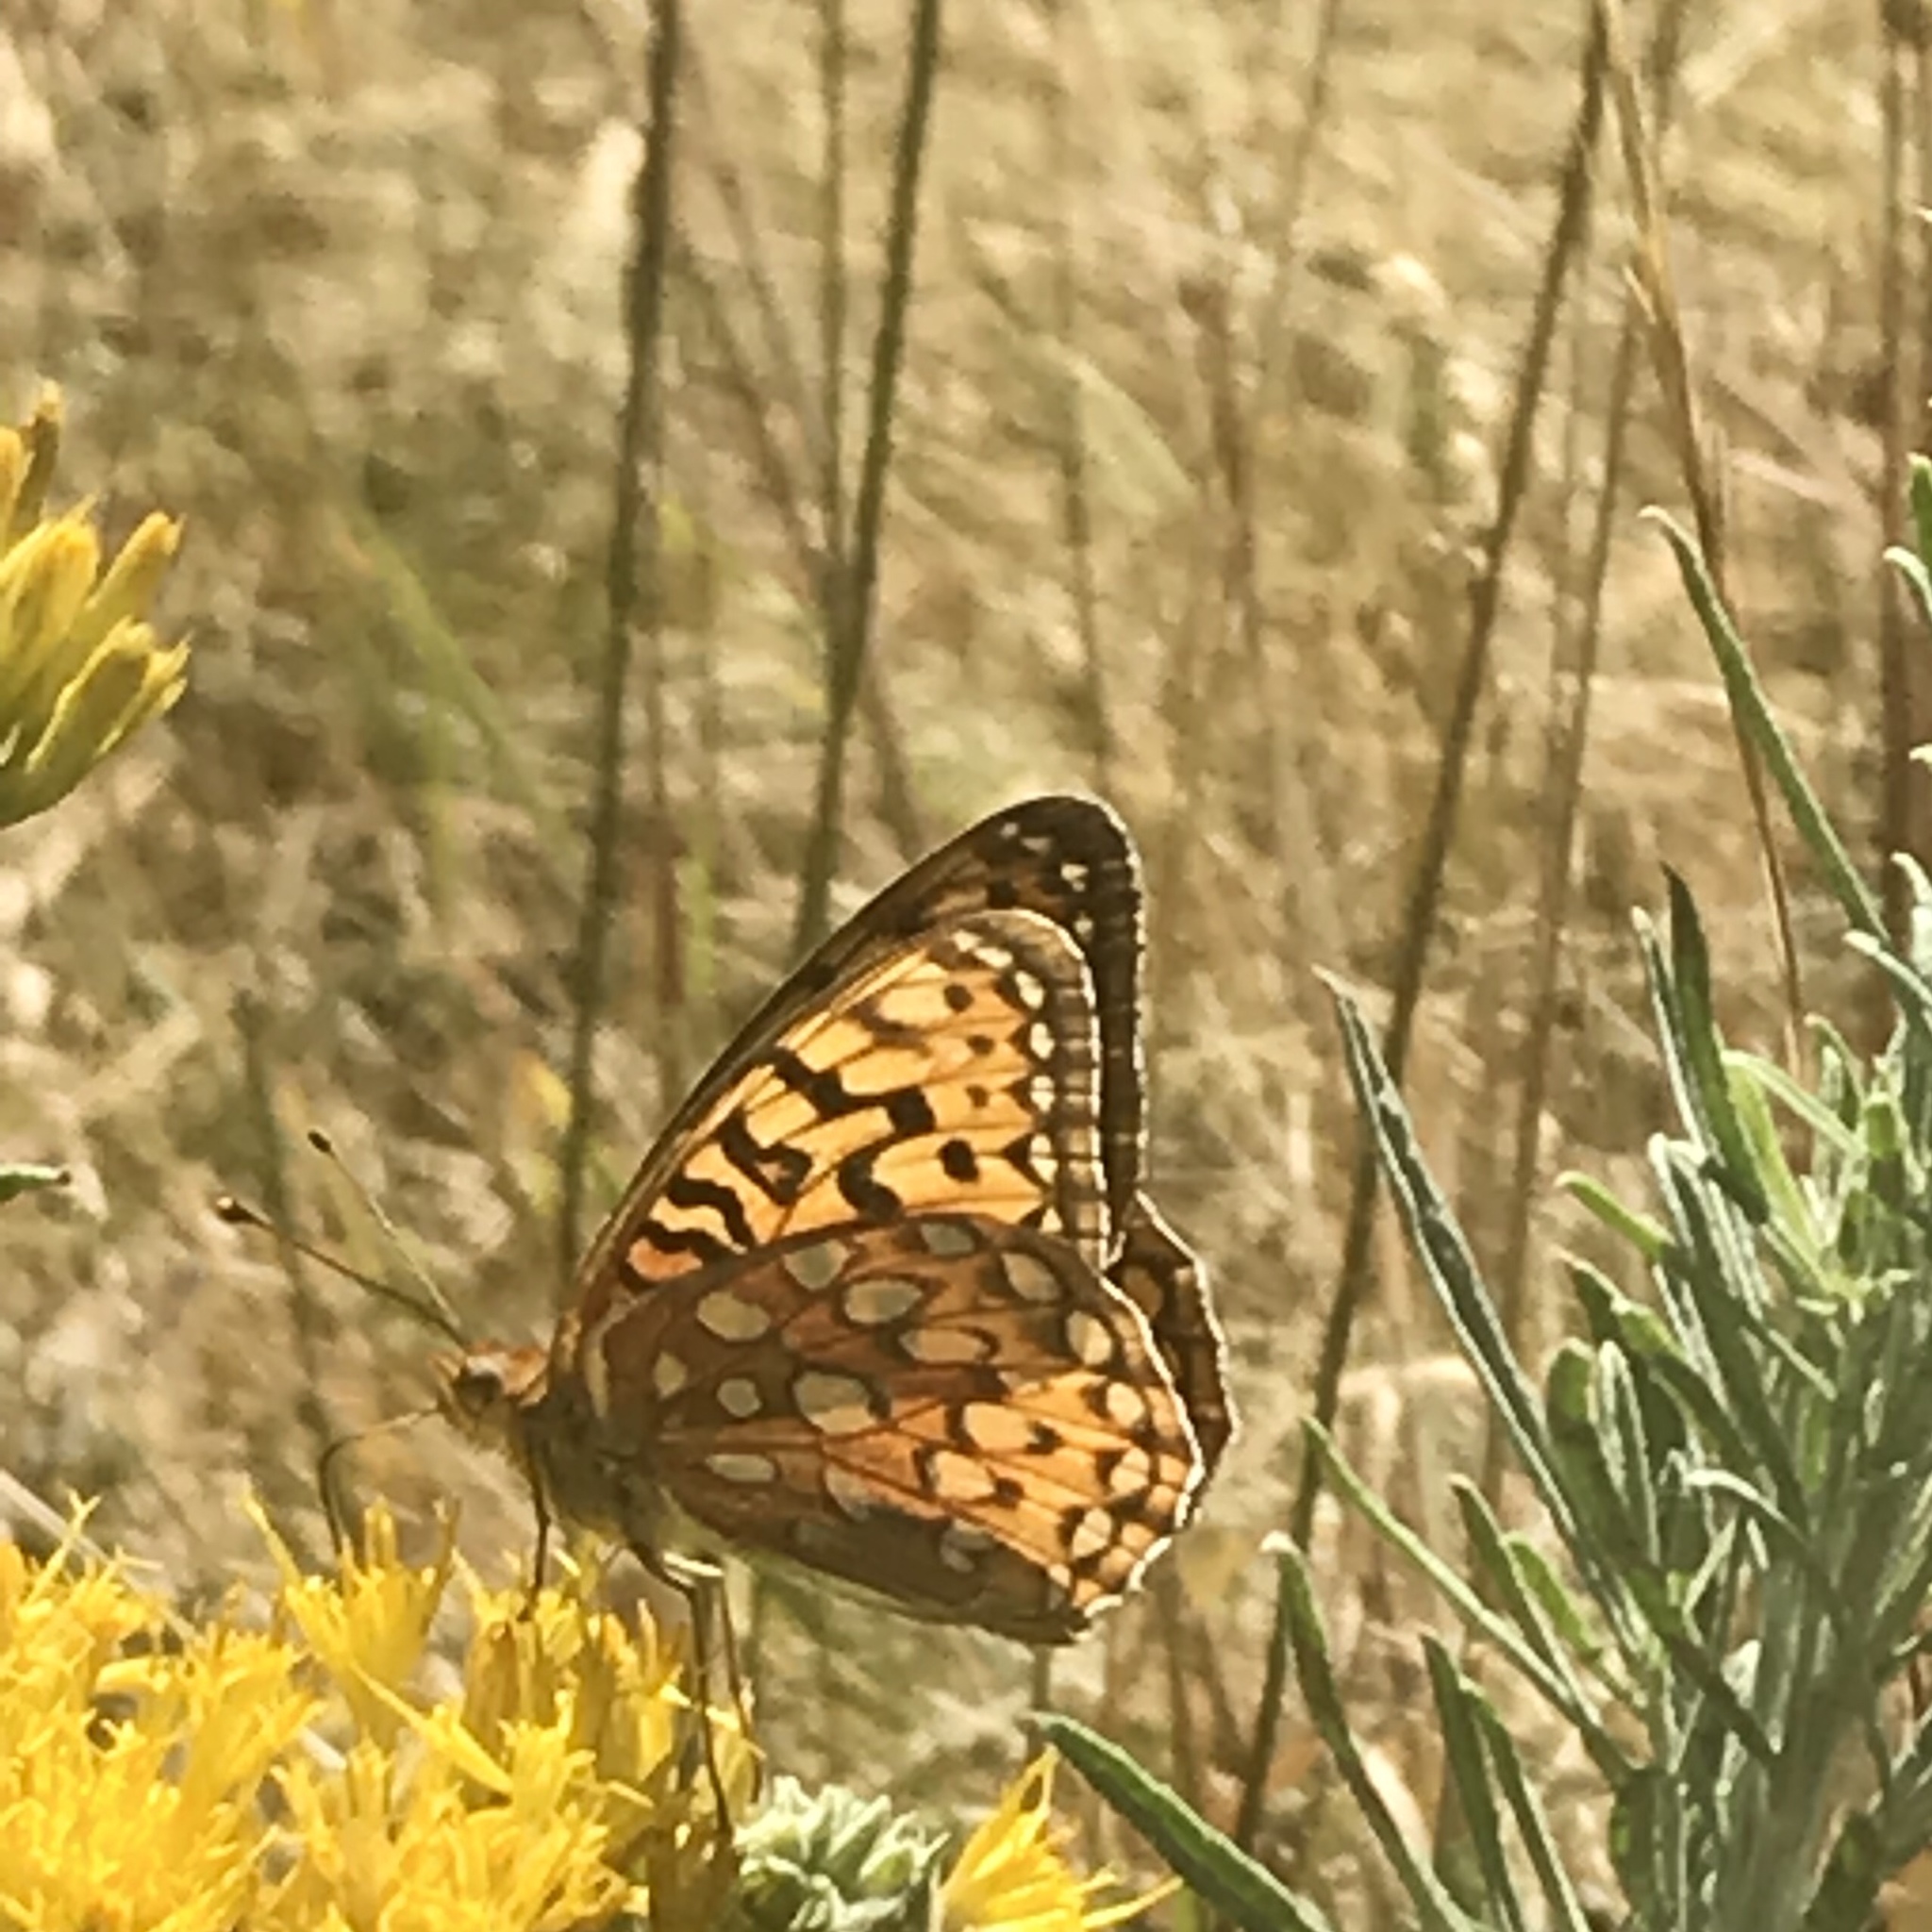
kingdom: Animalia
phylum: Arthropoda
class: Insecta
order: Lepidoptera
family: Nymphalidae
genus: Speyeria
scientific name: Speyeria zerene
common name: Zerene fritillary
